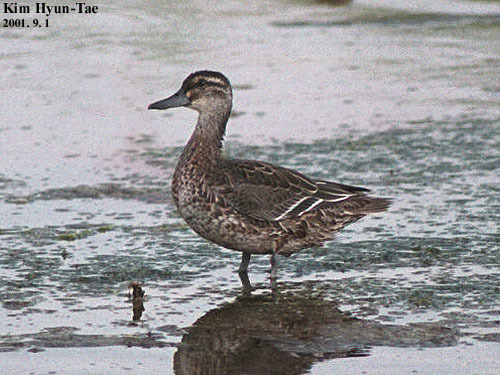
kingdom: Animalia
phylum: Chordata
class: Aves
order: Anseriformes
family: Anatidae
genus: Spatula
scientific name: Spatula querquedula
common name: Garganey
